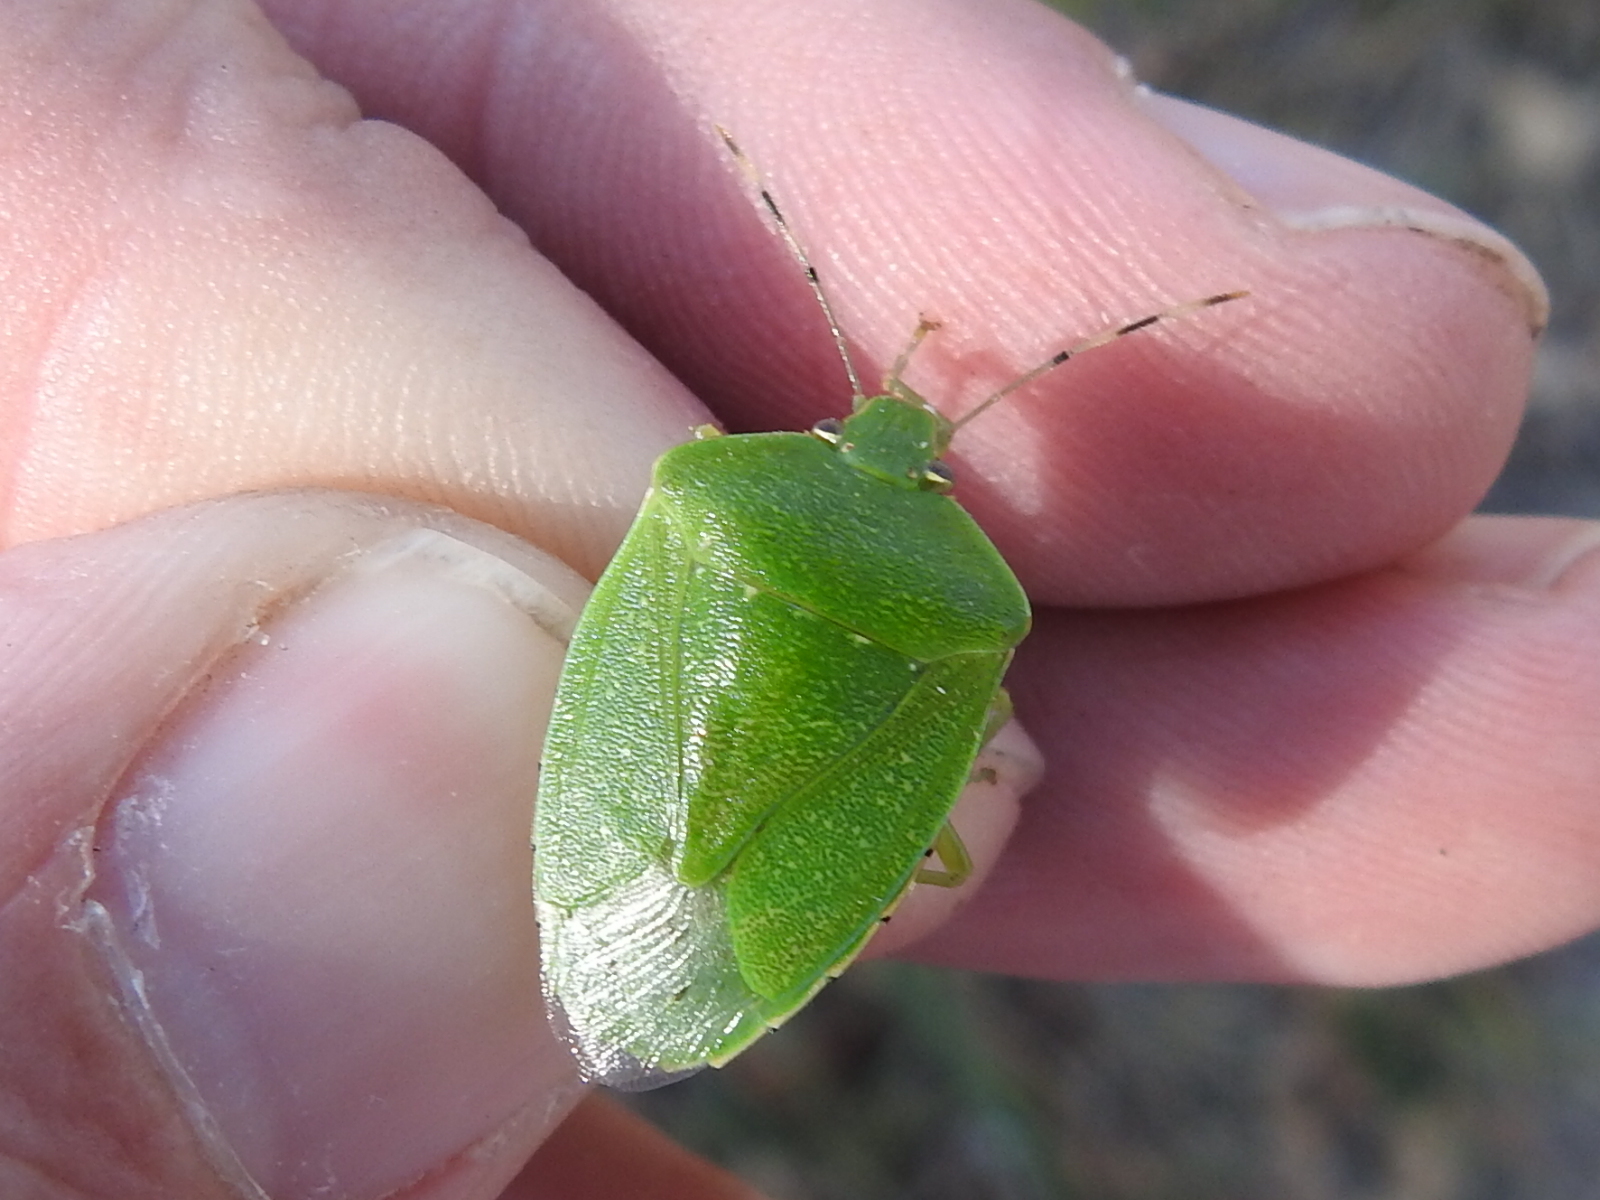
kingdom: Animalia
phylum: Arthropoda
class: Insecta
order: Hemiptera
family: Pentatomidae
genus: Chinavia
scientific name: Chinavia hilaris
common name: Green stink bug
